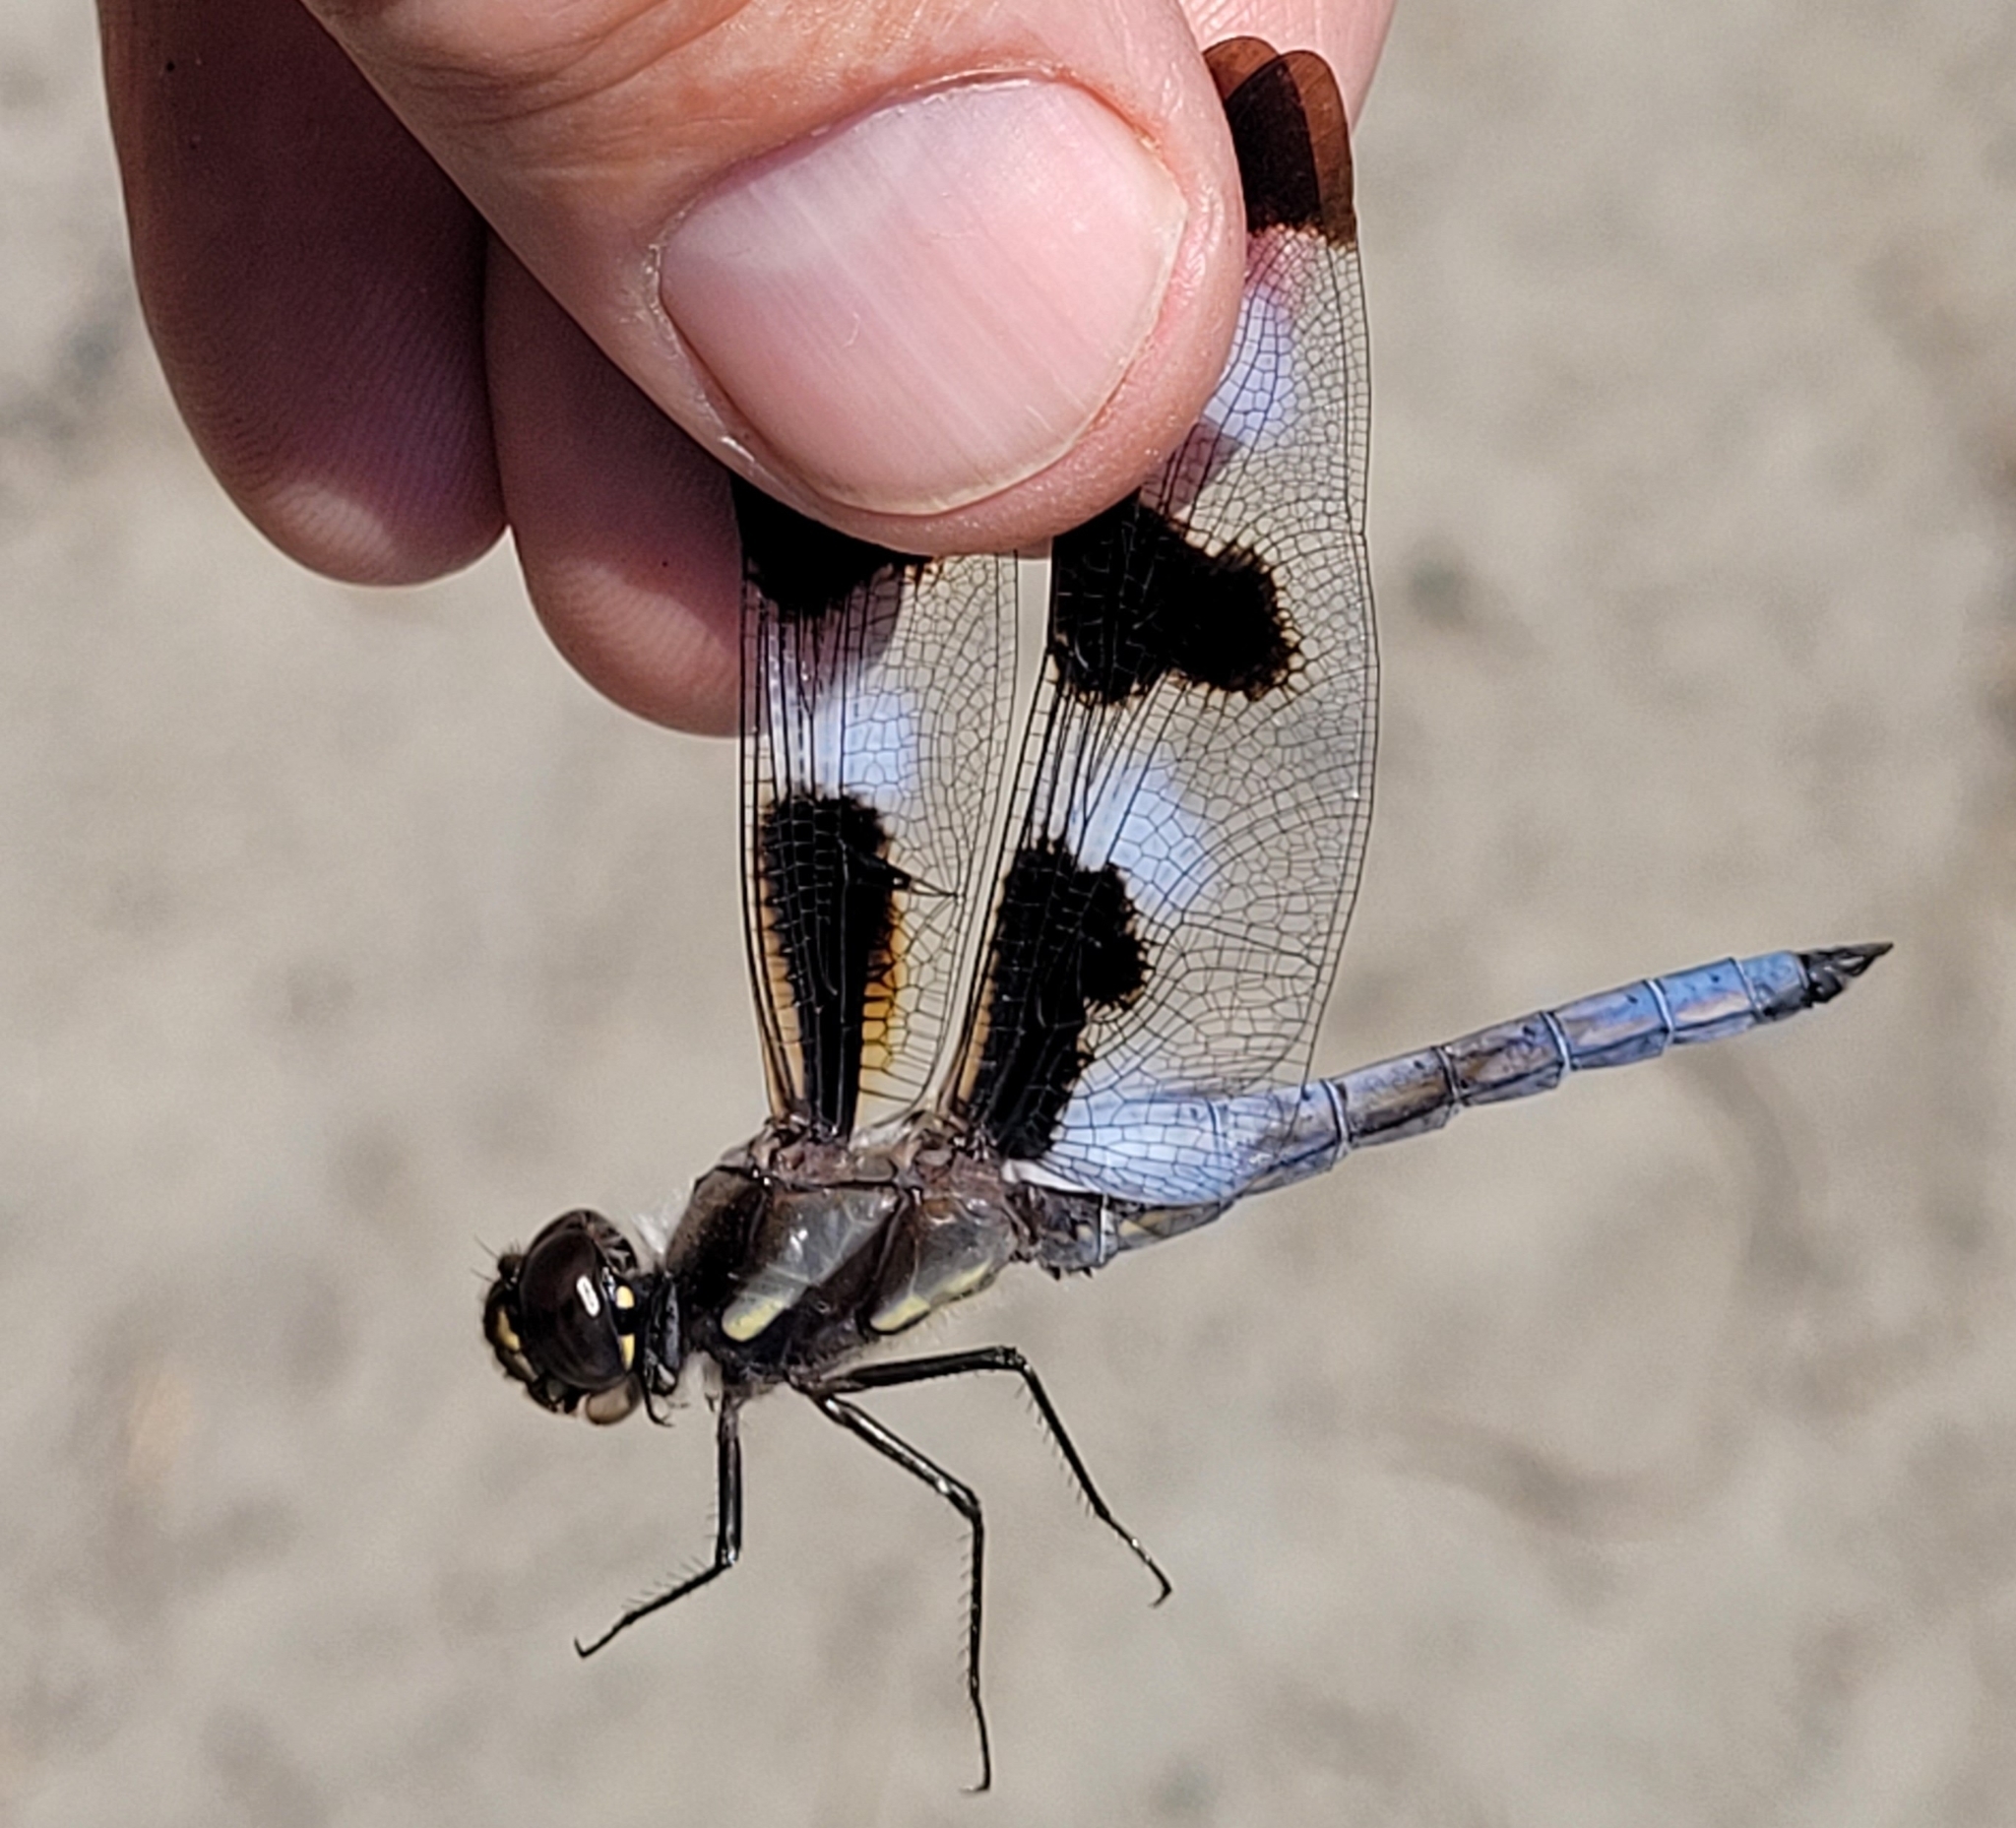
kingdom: Animalia
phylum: Arthropoda
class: Insecta
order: Odonata
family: Libellulidae
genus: Libellula
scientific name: Libellula pulchella
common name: Twelve-spotted skimmer
